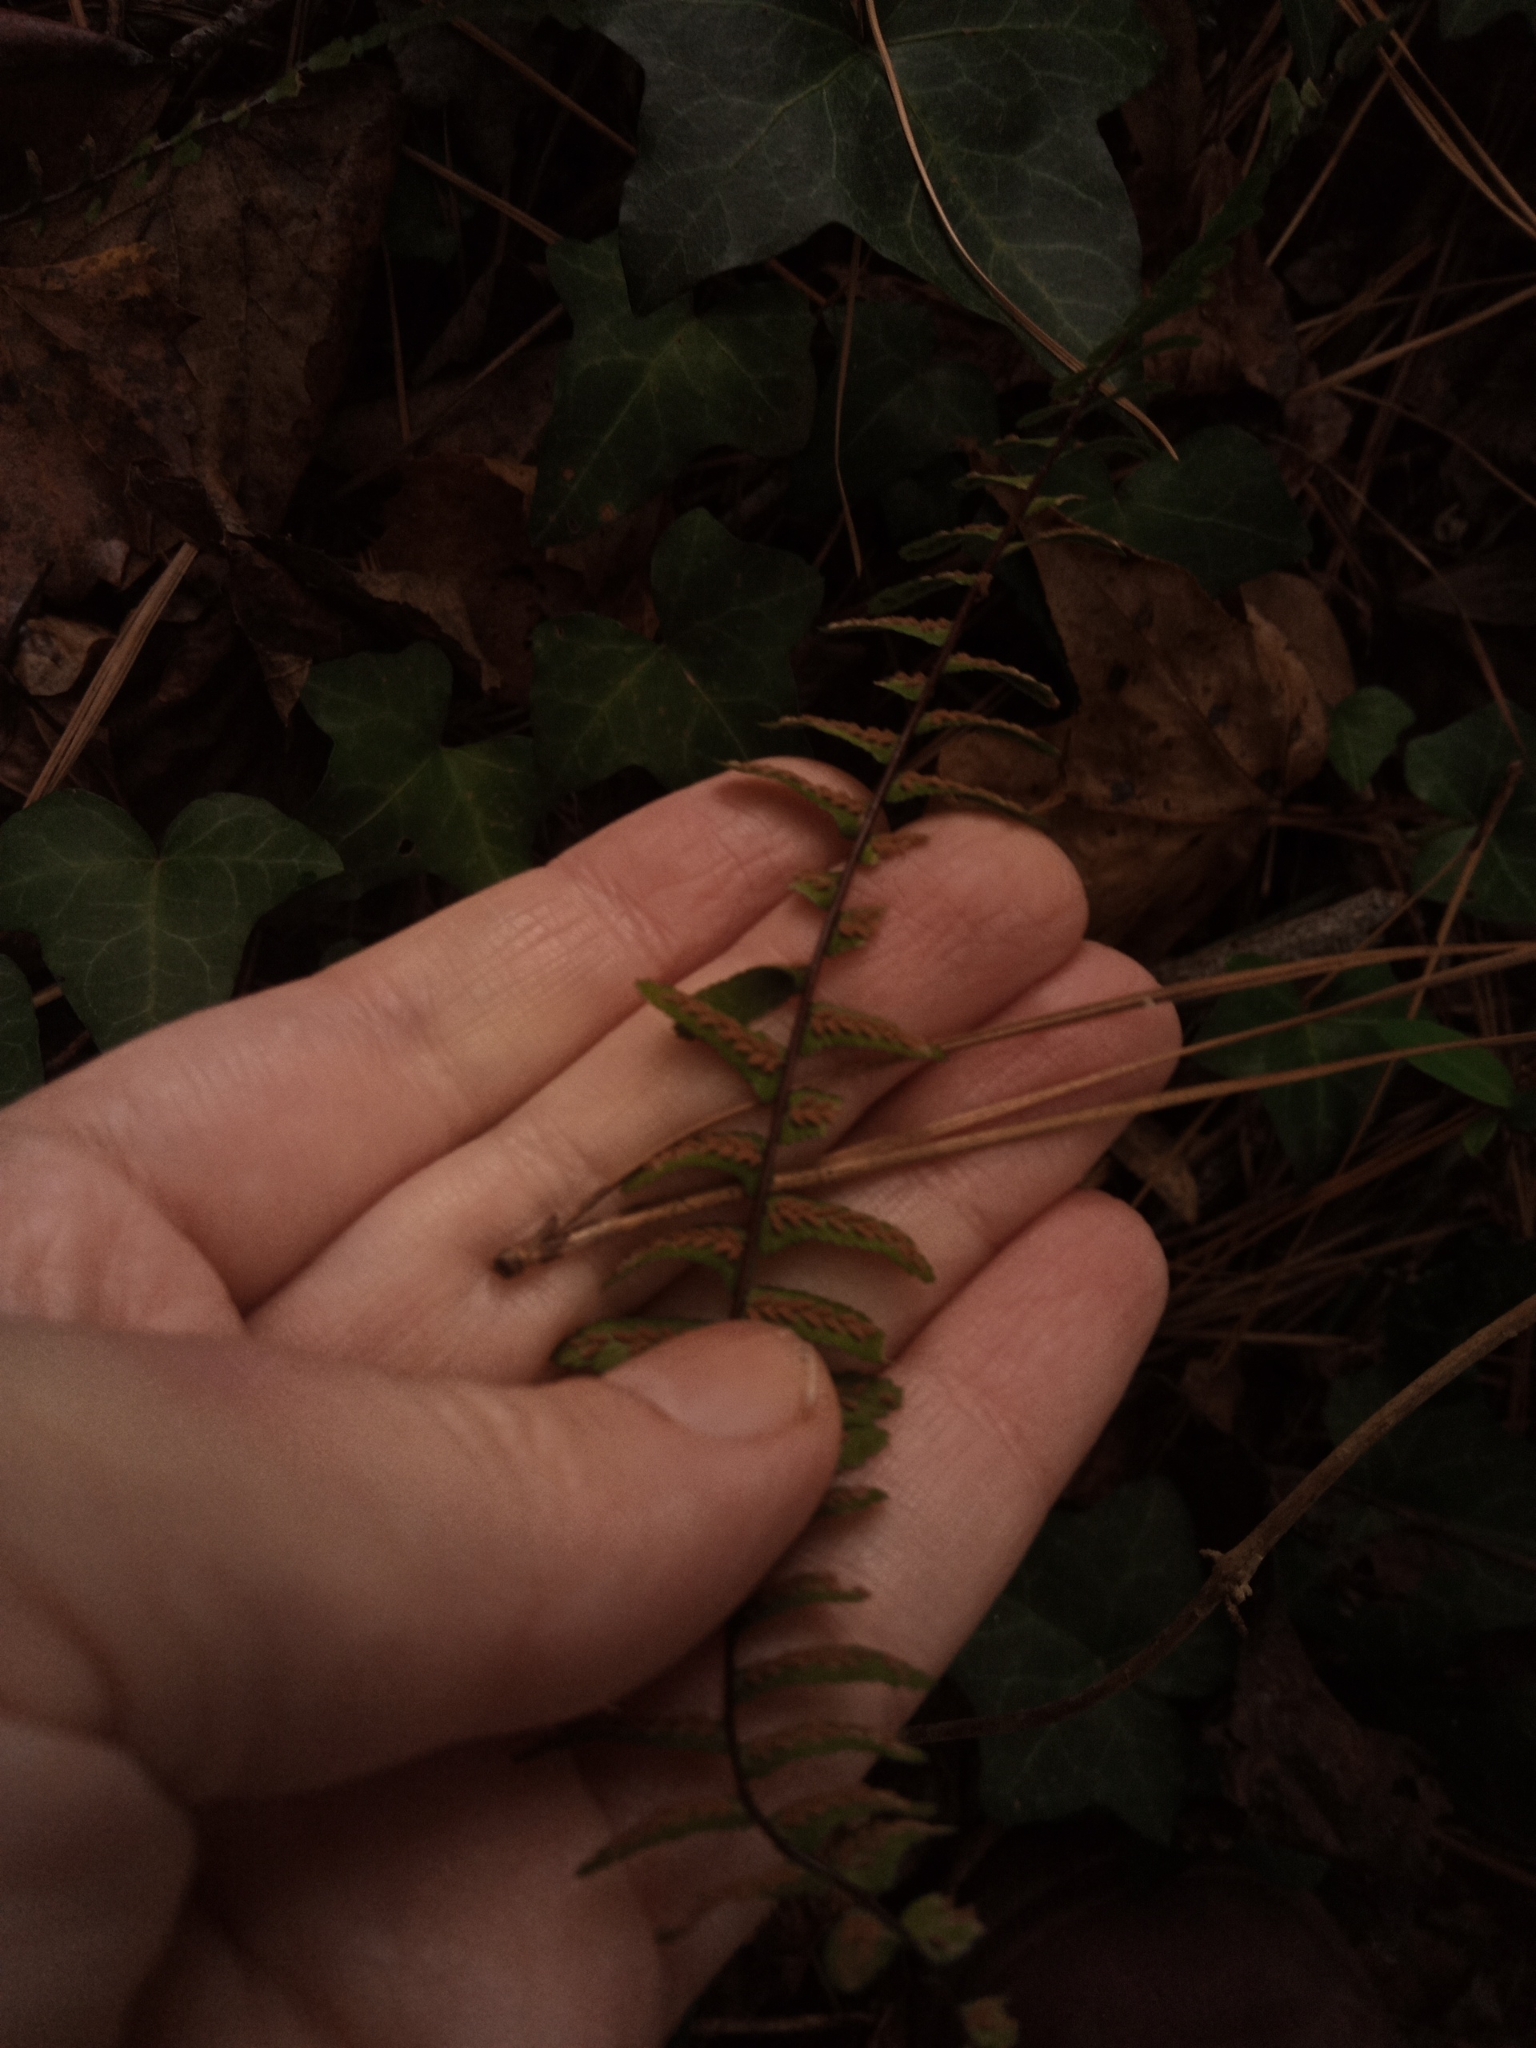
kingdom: Plantae
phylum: Tracheophyta
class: Polypodiopsida
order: Polypodiales
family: Aspleniaceae
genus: Asplenium
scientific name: Asplenium platyneuron
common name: Ebony spleenwort
